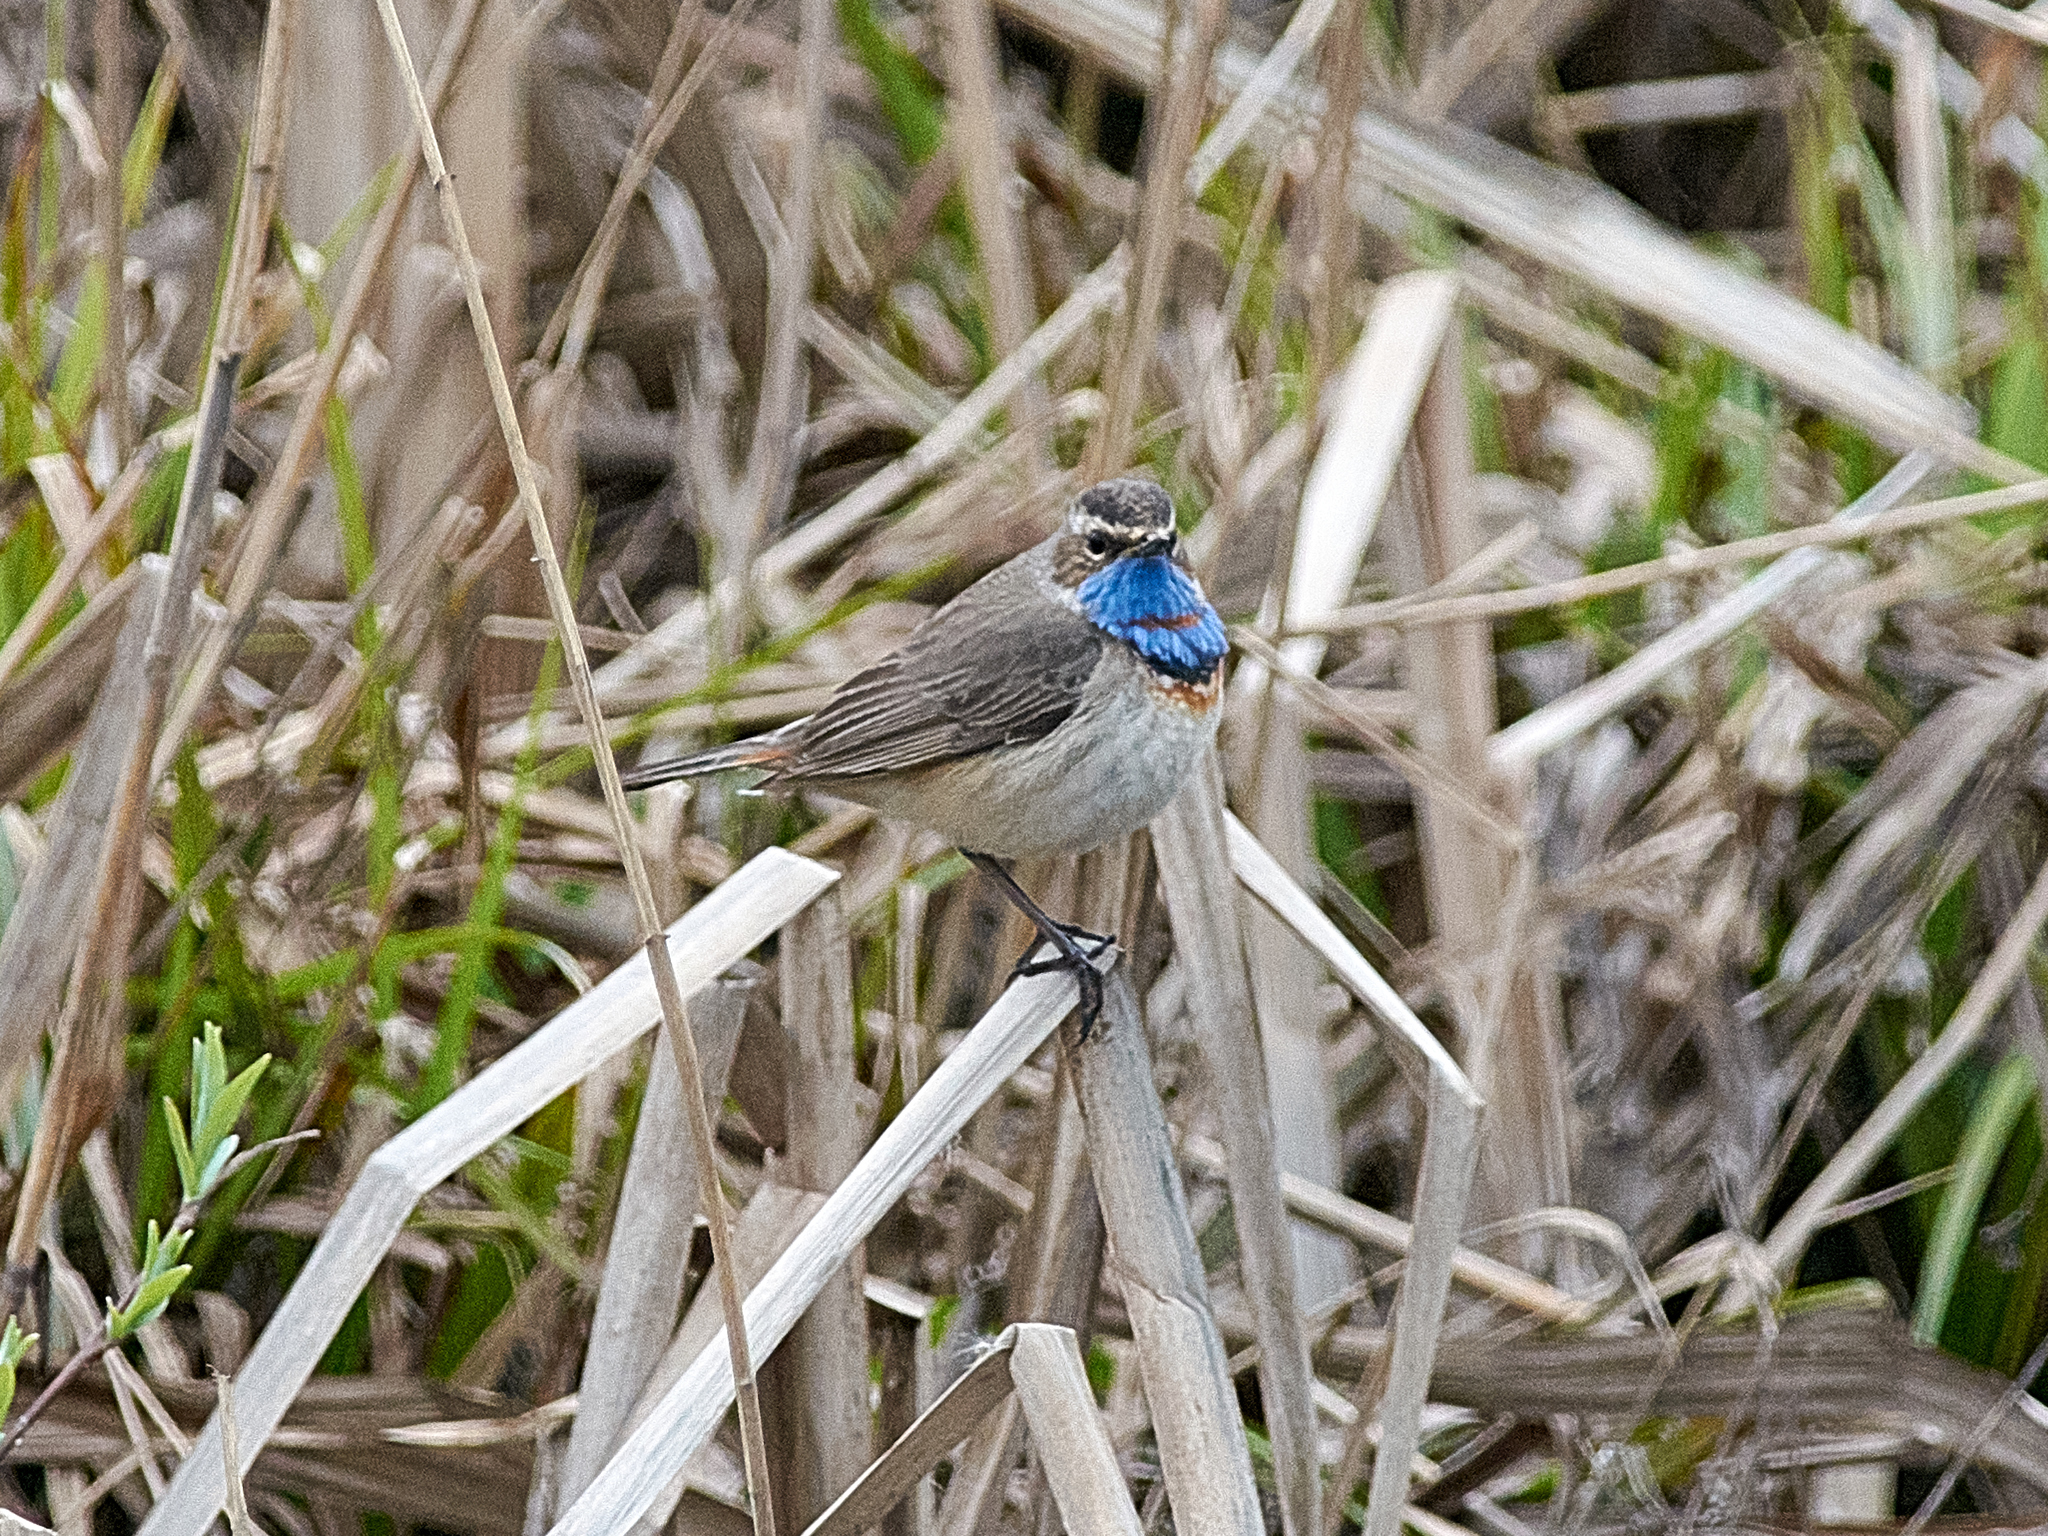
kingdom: Animalia
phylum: Chordata
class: Aves
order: Passeriformes
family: Muscicapidae
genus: Luscinia
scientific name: Luscinia svecica
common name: Bluethroat
